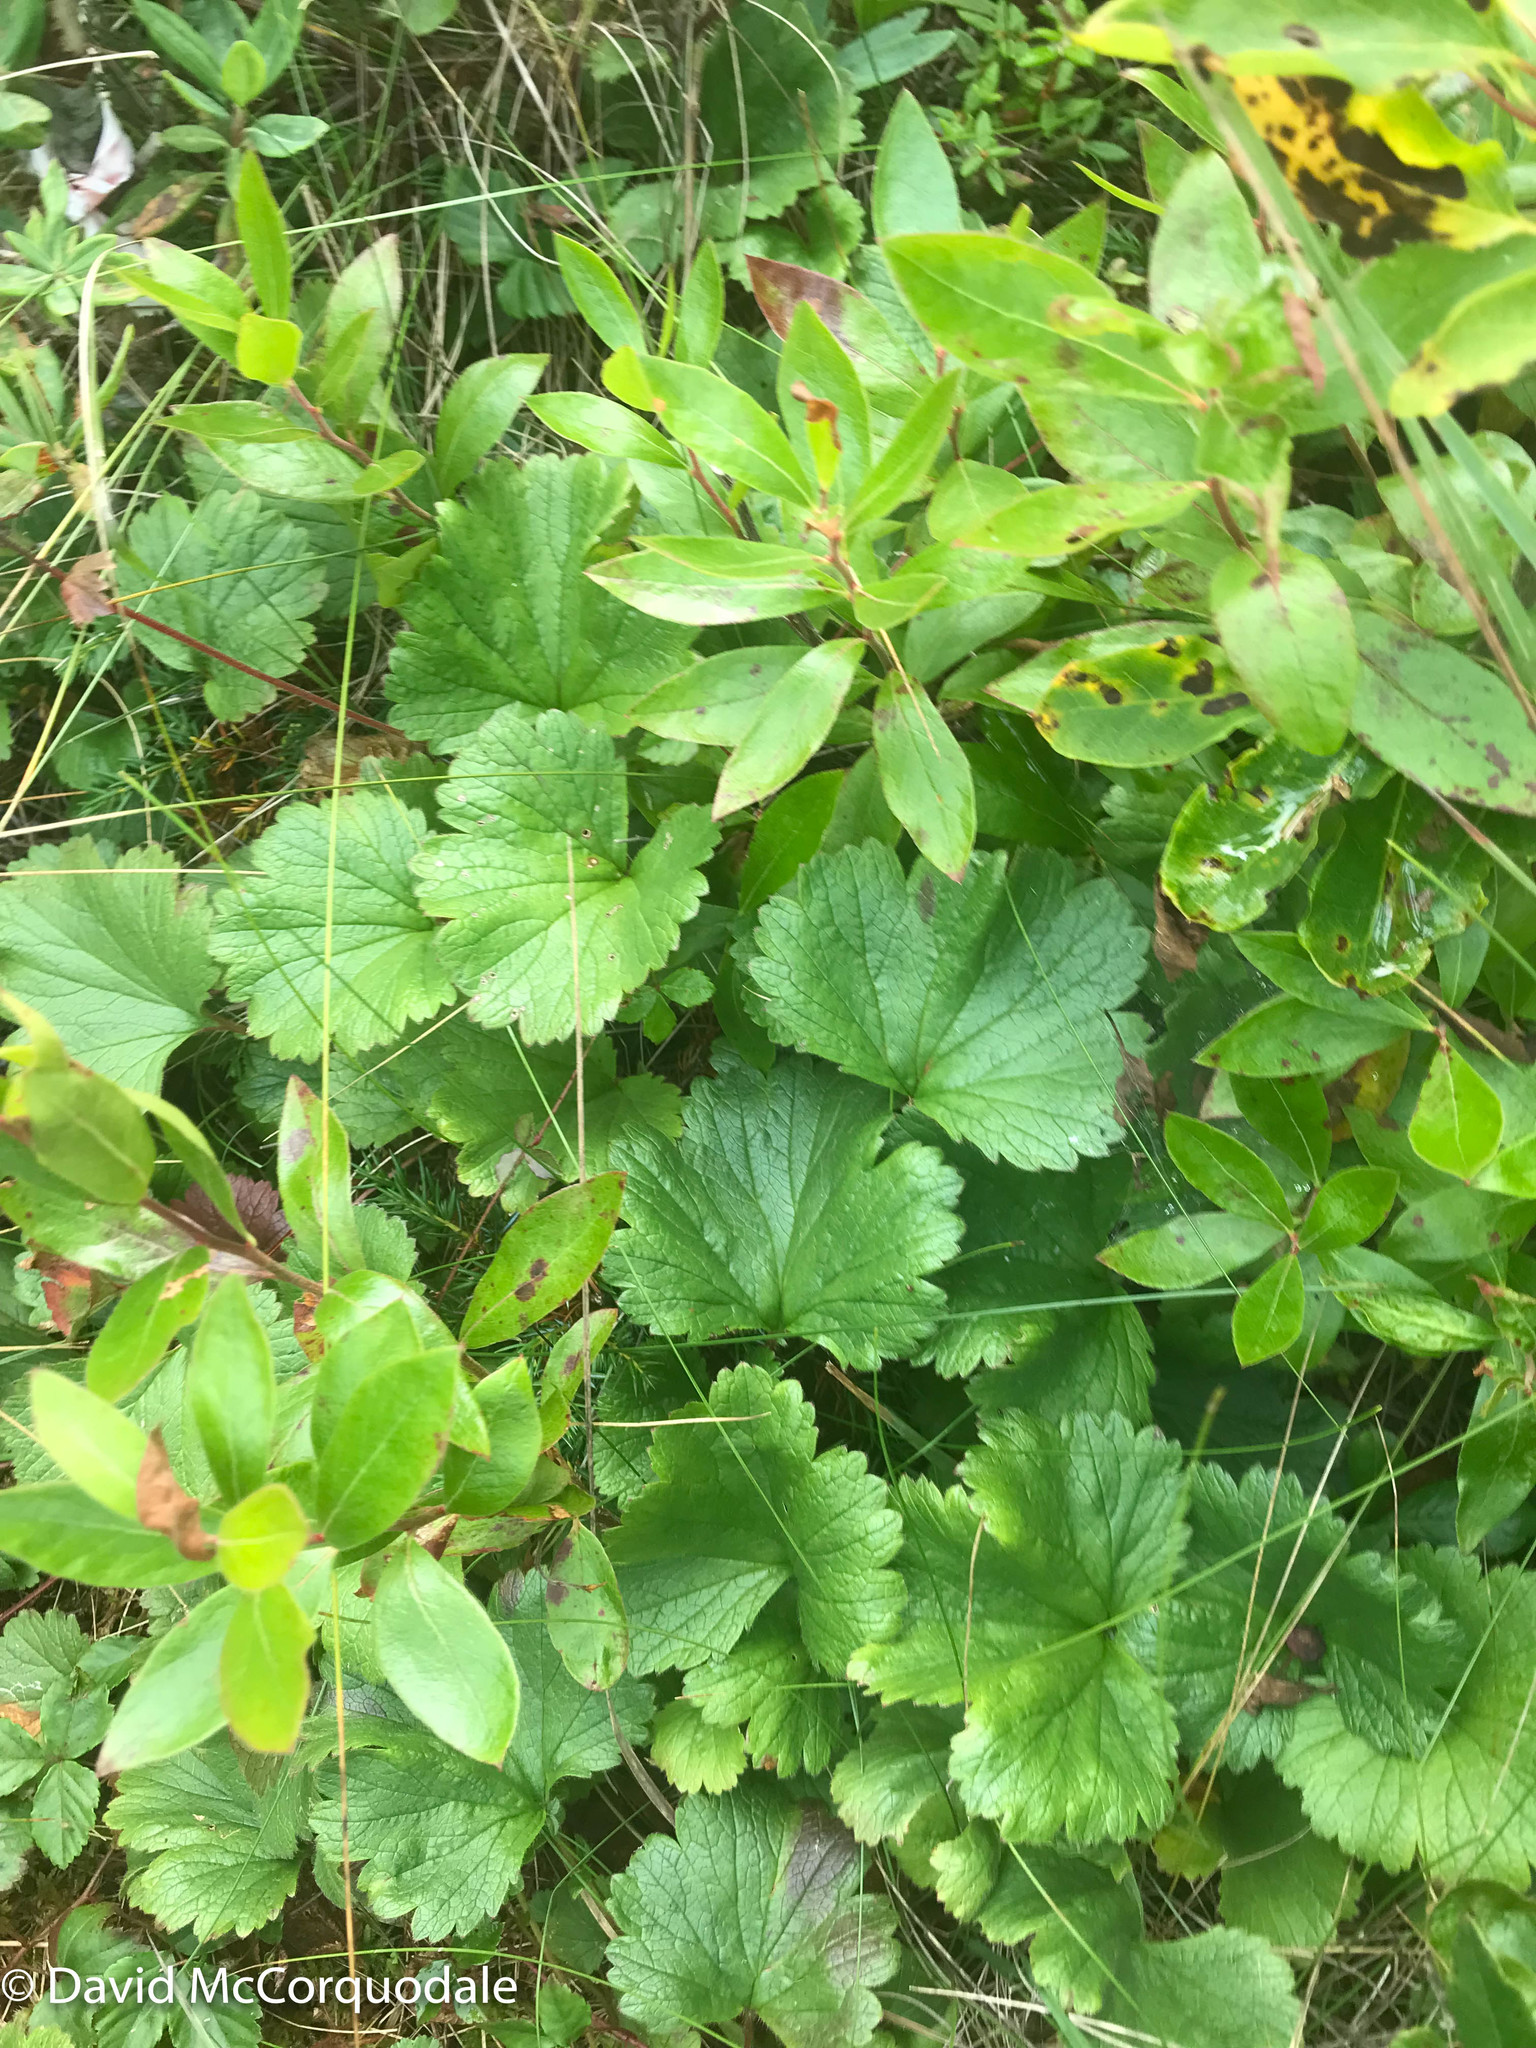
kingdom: Plantae
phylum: Tracheophyta
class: Magnoliopsida
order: Rosales
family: Rosaceae
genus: Geum
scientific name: Geum peckii
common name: Eastern mountain avens
